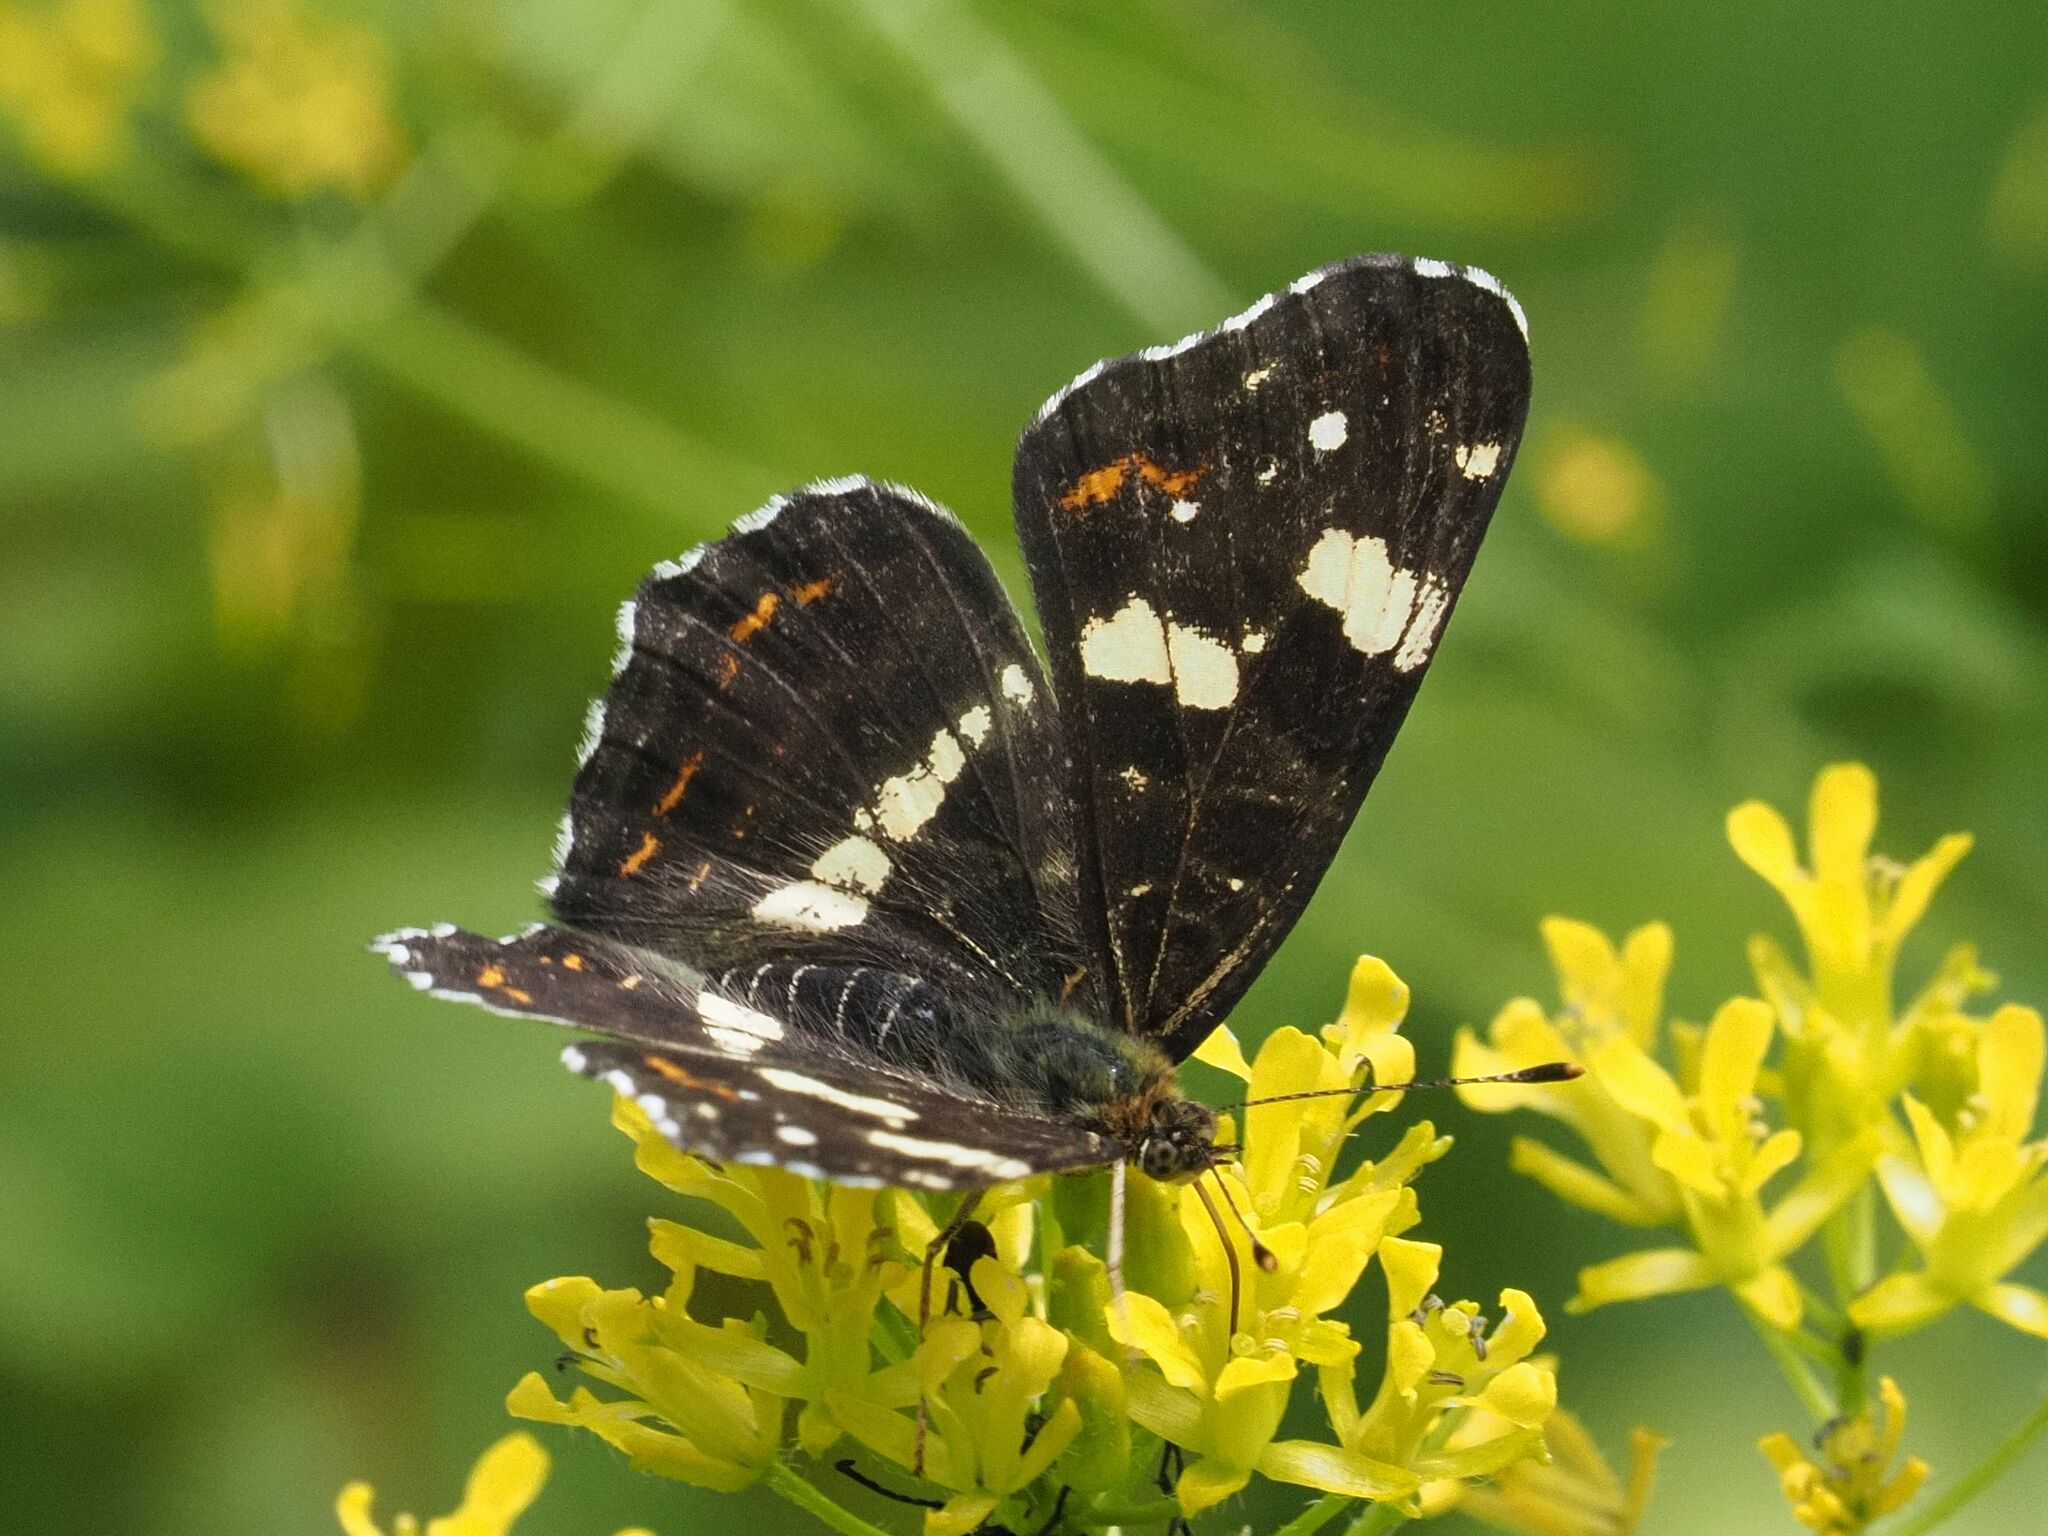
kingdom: Animalia
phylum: Arthropoda
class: Insecta
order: Lepidoptera
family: Nymphalidae
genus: Araschnia
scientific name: Araschnia levana
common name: Map butterfly
